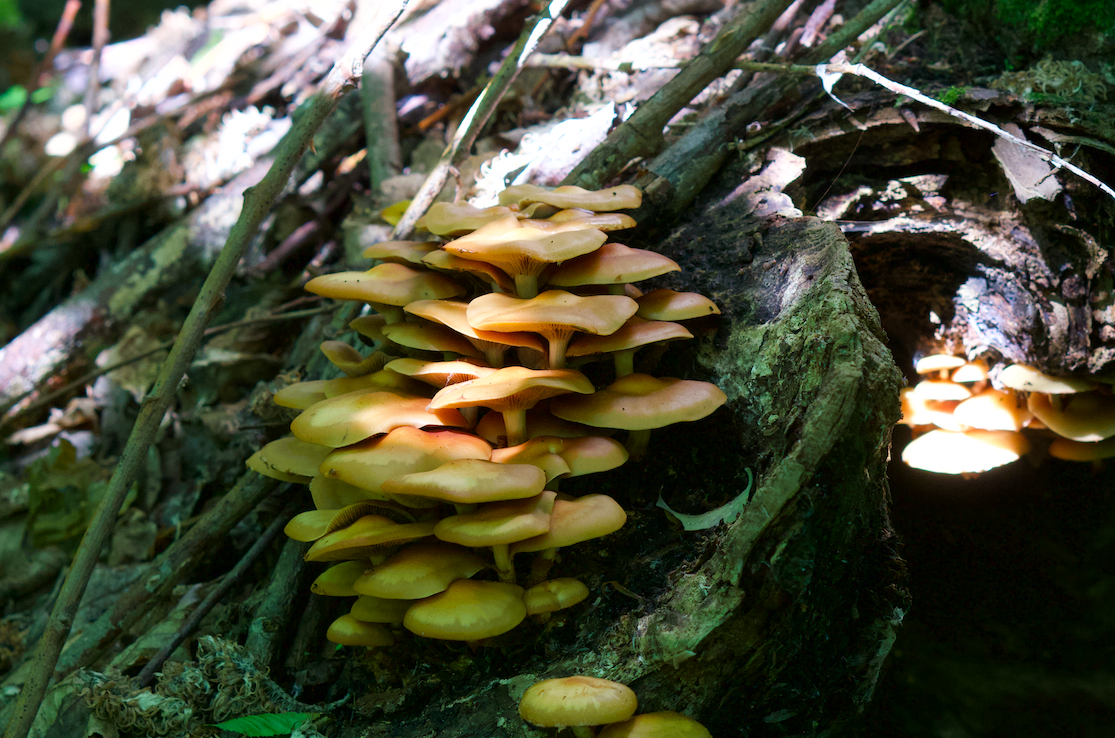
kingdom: Fungi
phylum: Basidiomycota
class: Agaricomycetes
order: Agaricales
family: Strophariaceae
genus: Kuehneromyces
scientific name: Kuehneromyces mutabilis
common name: Sheathed woodtuft
